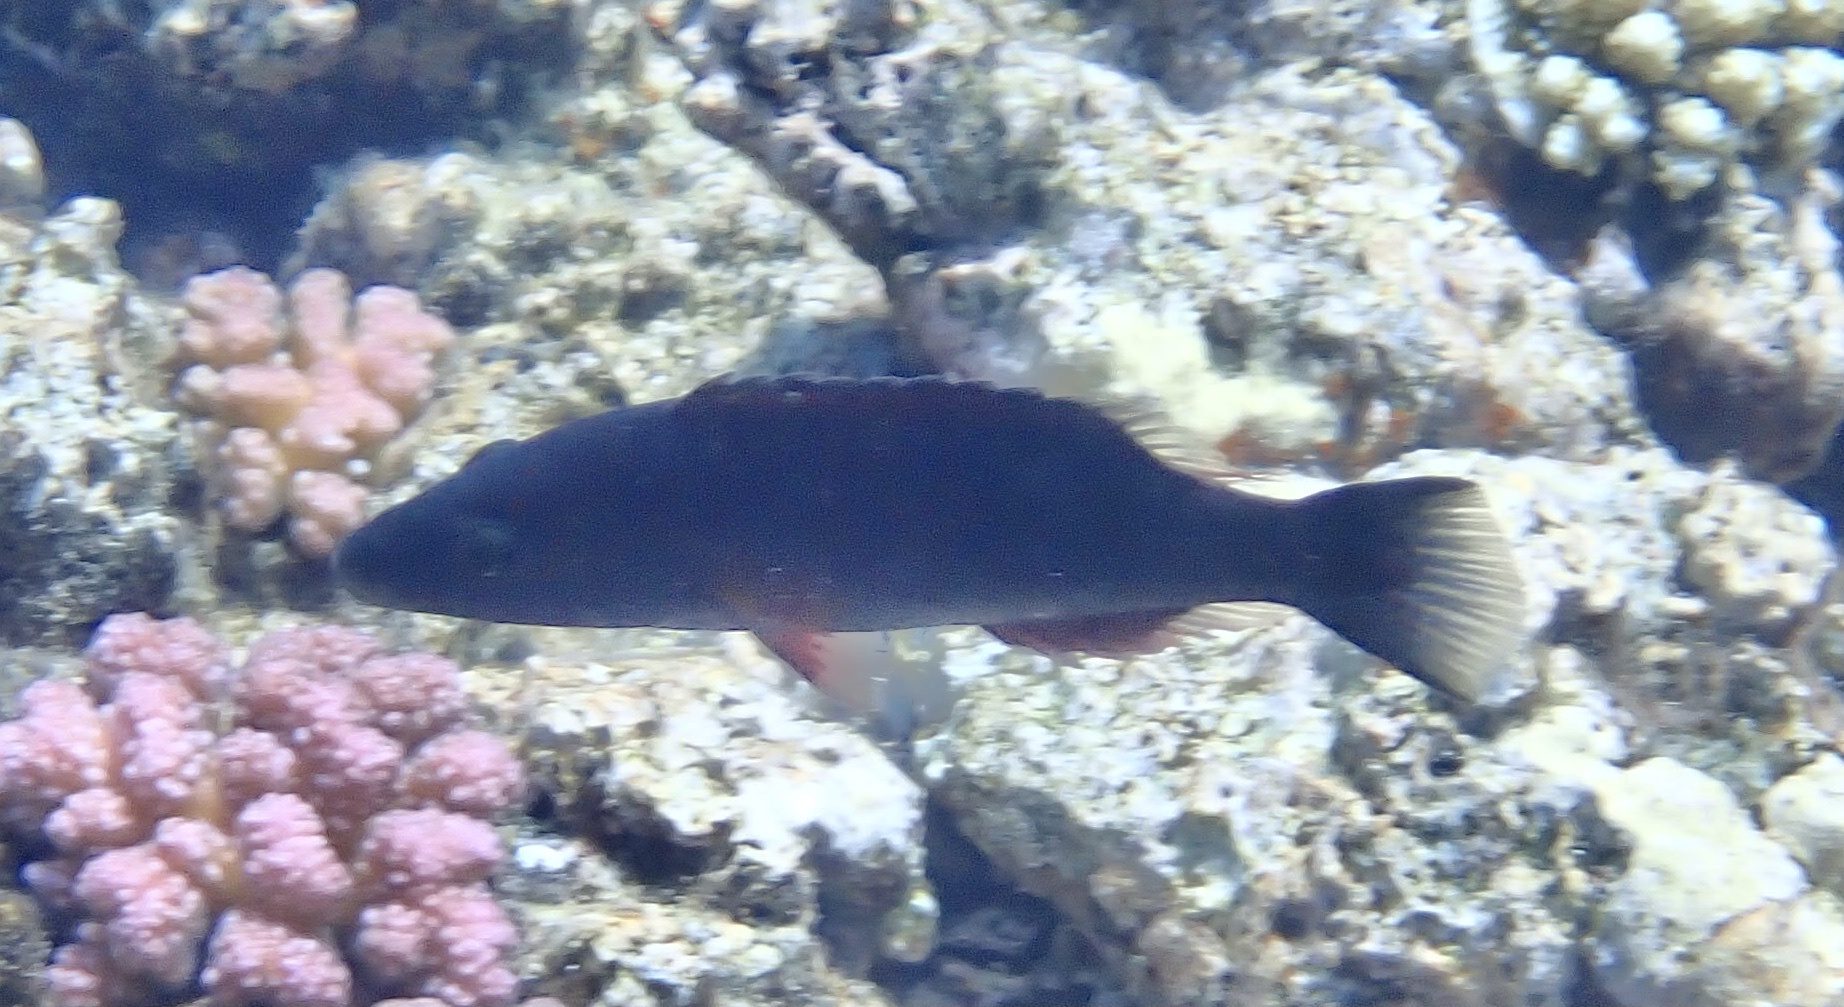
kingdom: Animalia
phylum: Chordata
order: Perciformes
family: Labridae
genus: Oxycheilinus
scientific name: Oxycheilinus digramma
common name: Bandcheek wrasse
